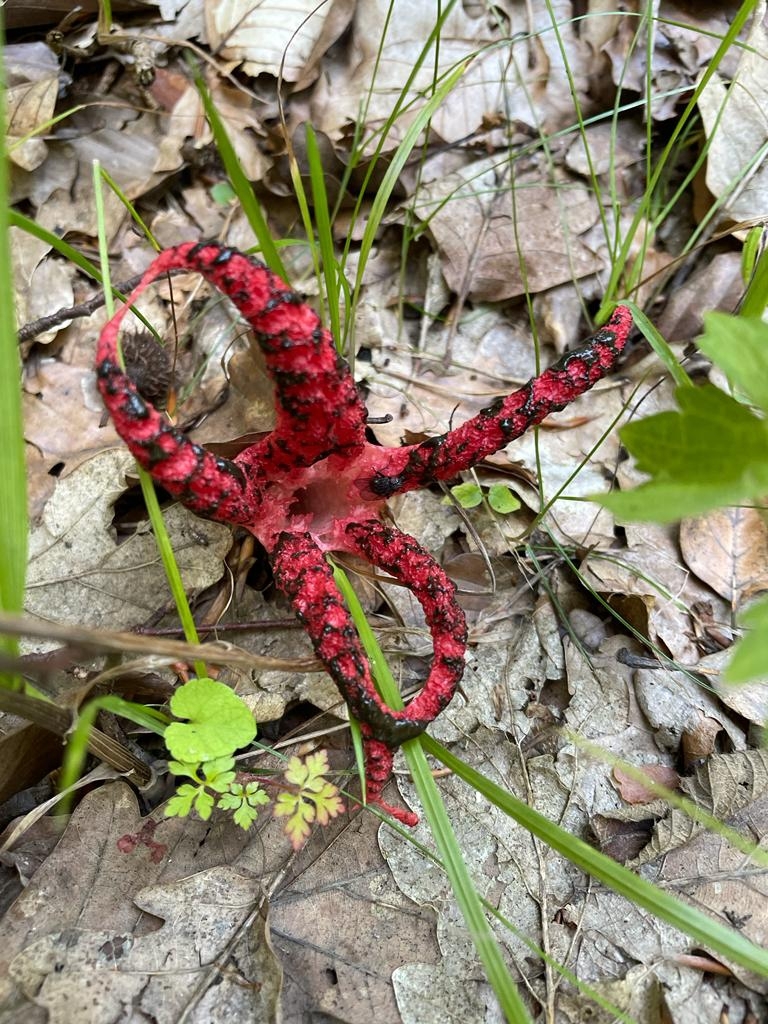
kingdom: Fungi
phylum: Basidiomycota
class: Agaricomycetes
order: Phallales
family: Phallaceae
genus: Clathrus
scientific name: Clathrus archeri
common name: Devil's fingers
